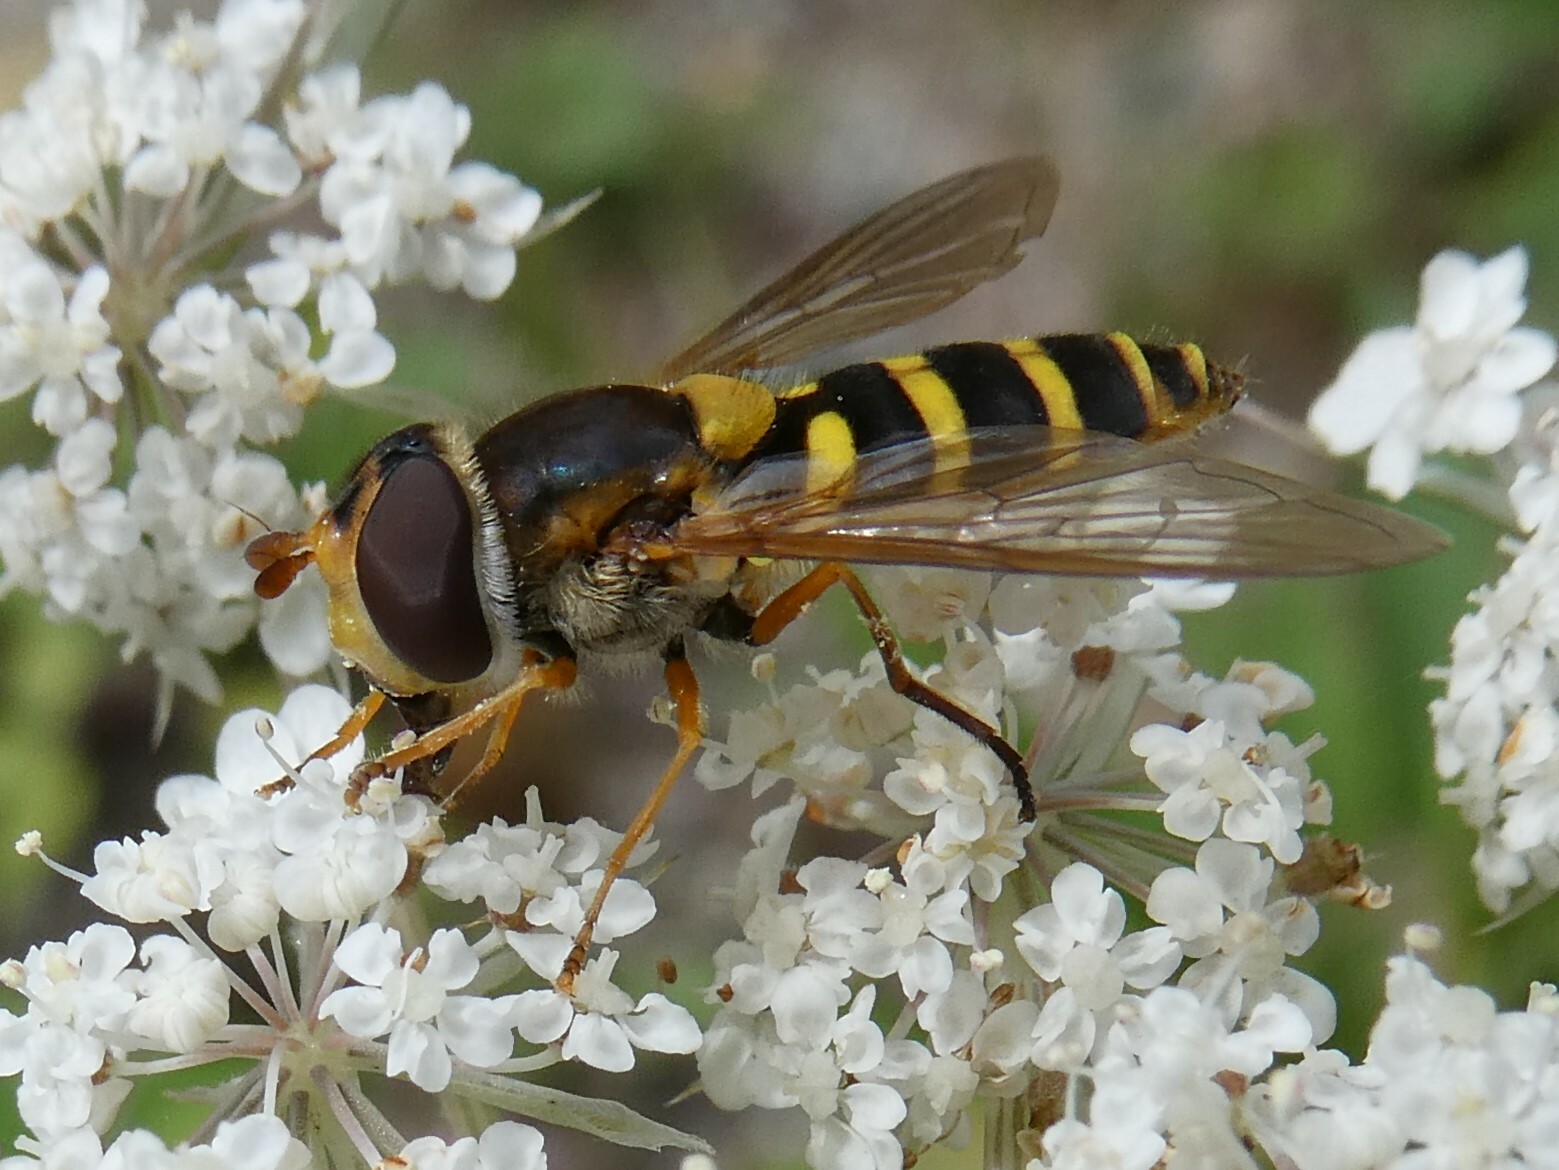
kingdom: Animalia
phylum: Arthropoda
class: Insecta
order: Diptera
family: Syrphidae
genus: Syrphus
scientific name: Syrphus ribesii
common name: Common flower fly
